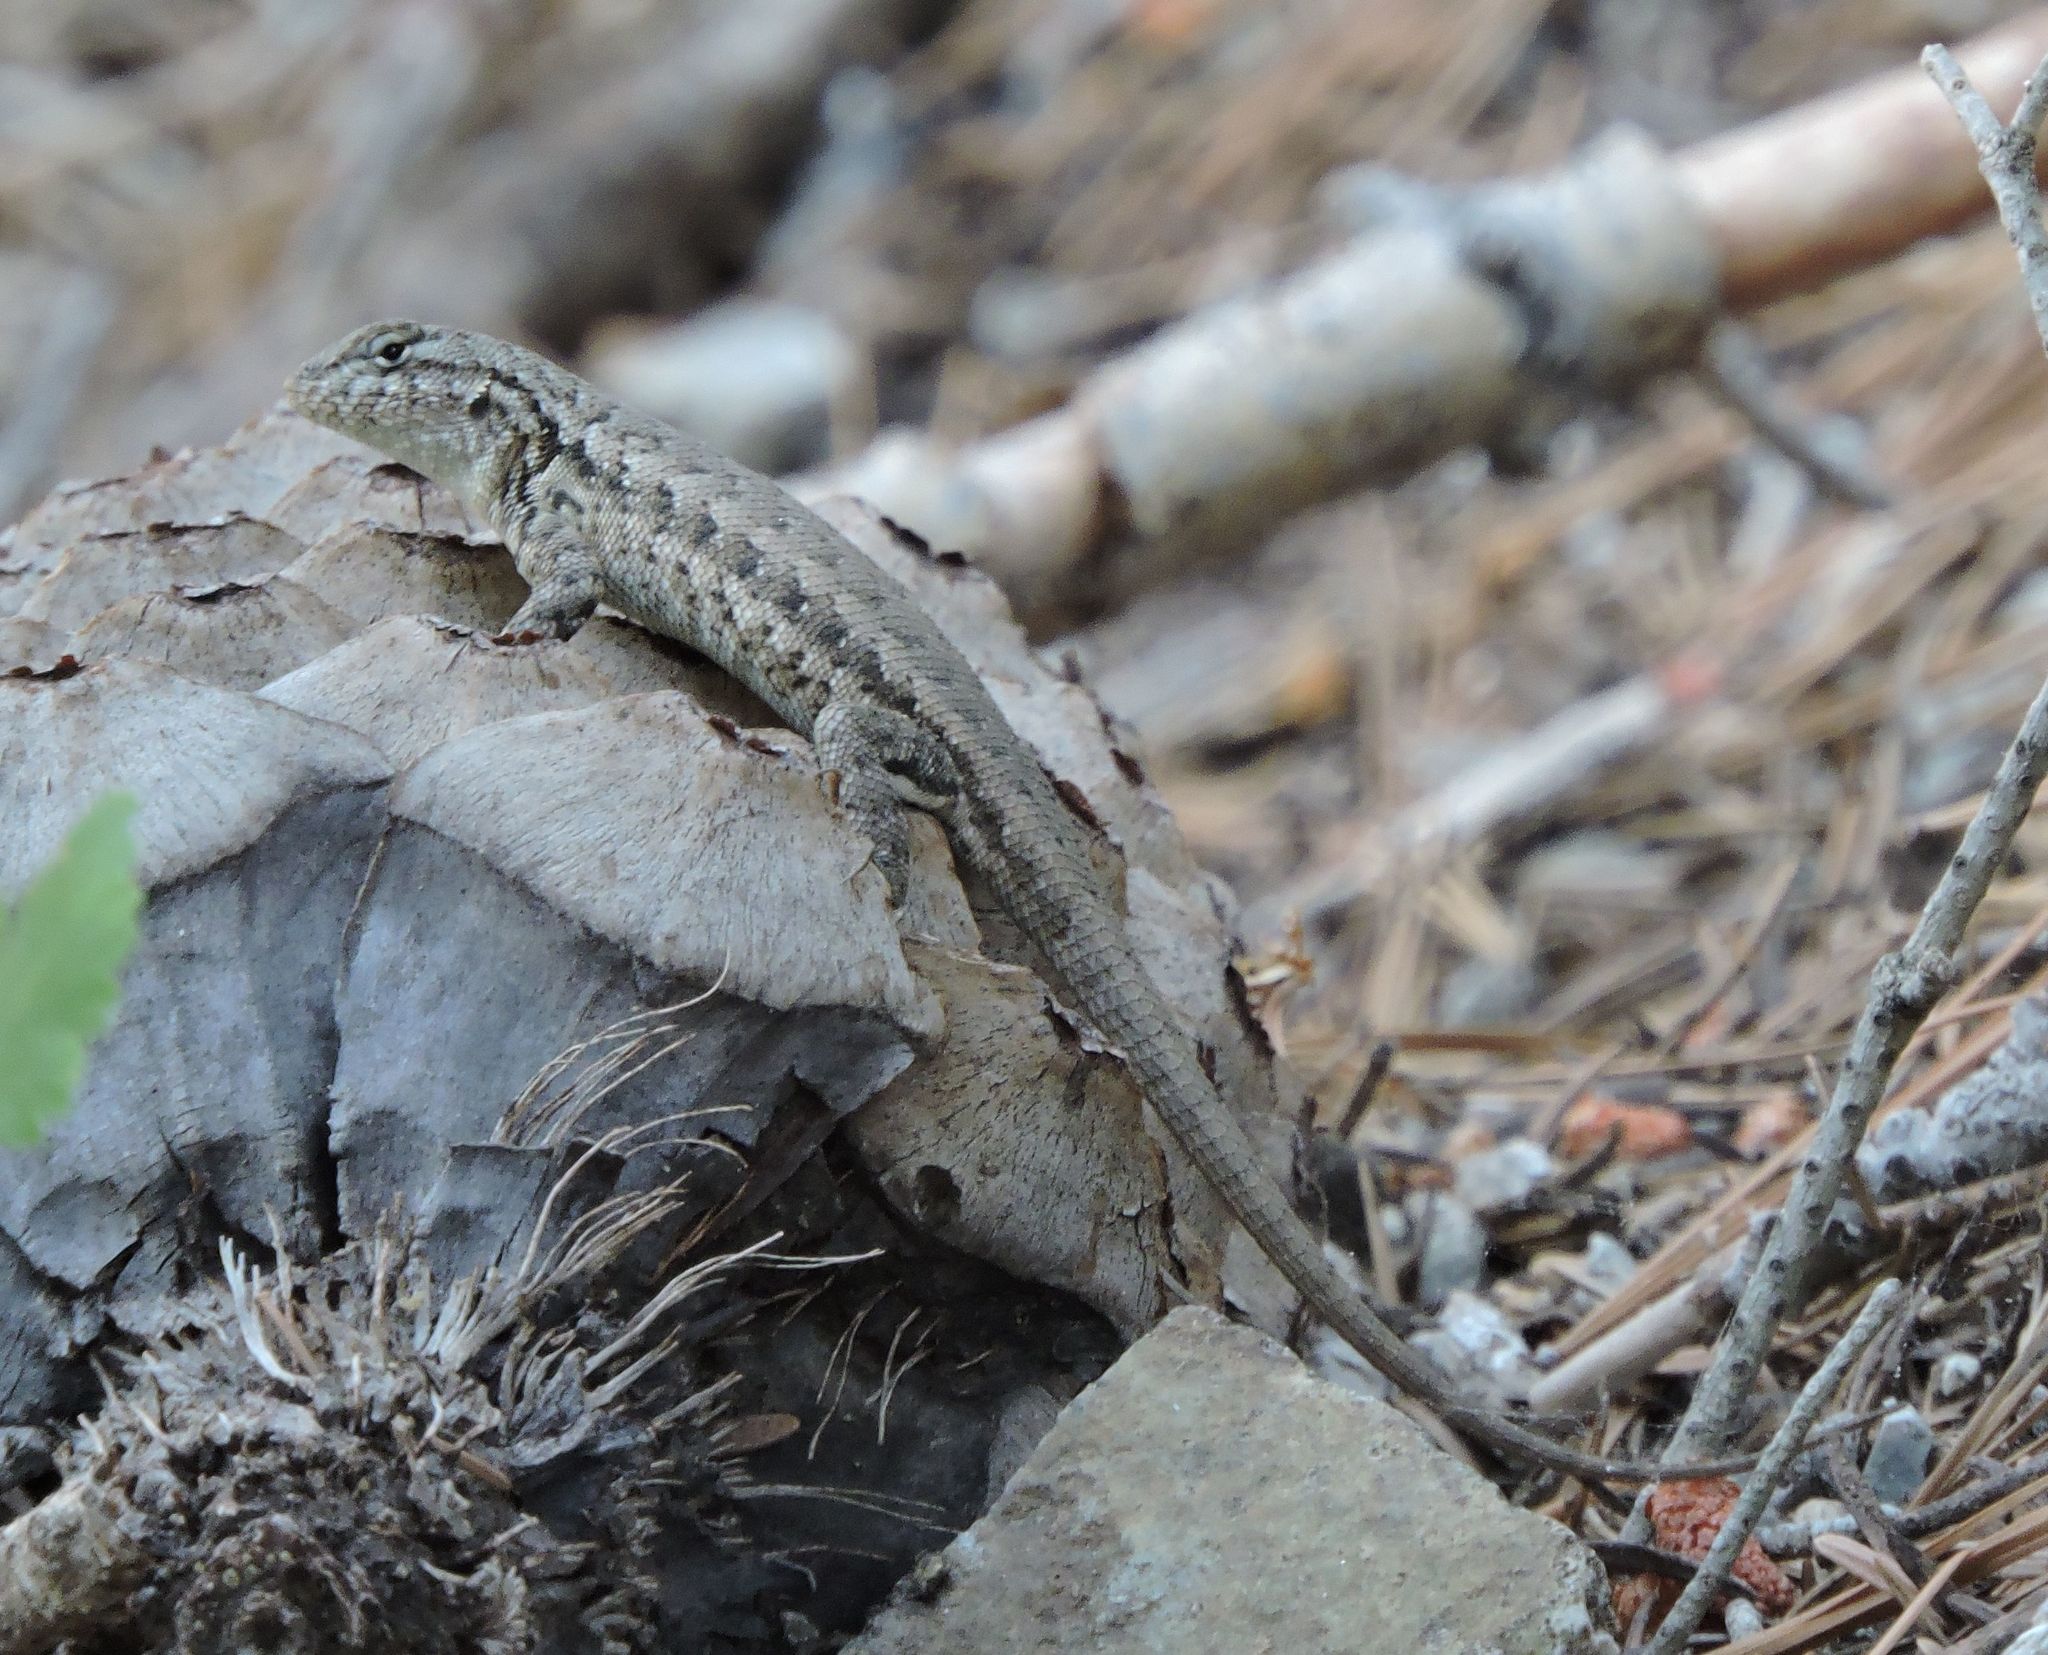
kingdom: Animalia
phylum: Chordata
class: Squamata
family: Phrynosomatidae
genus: Sceloporus
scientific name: Sceloporus graciosus
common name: Sagebrush lizard
